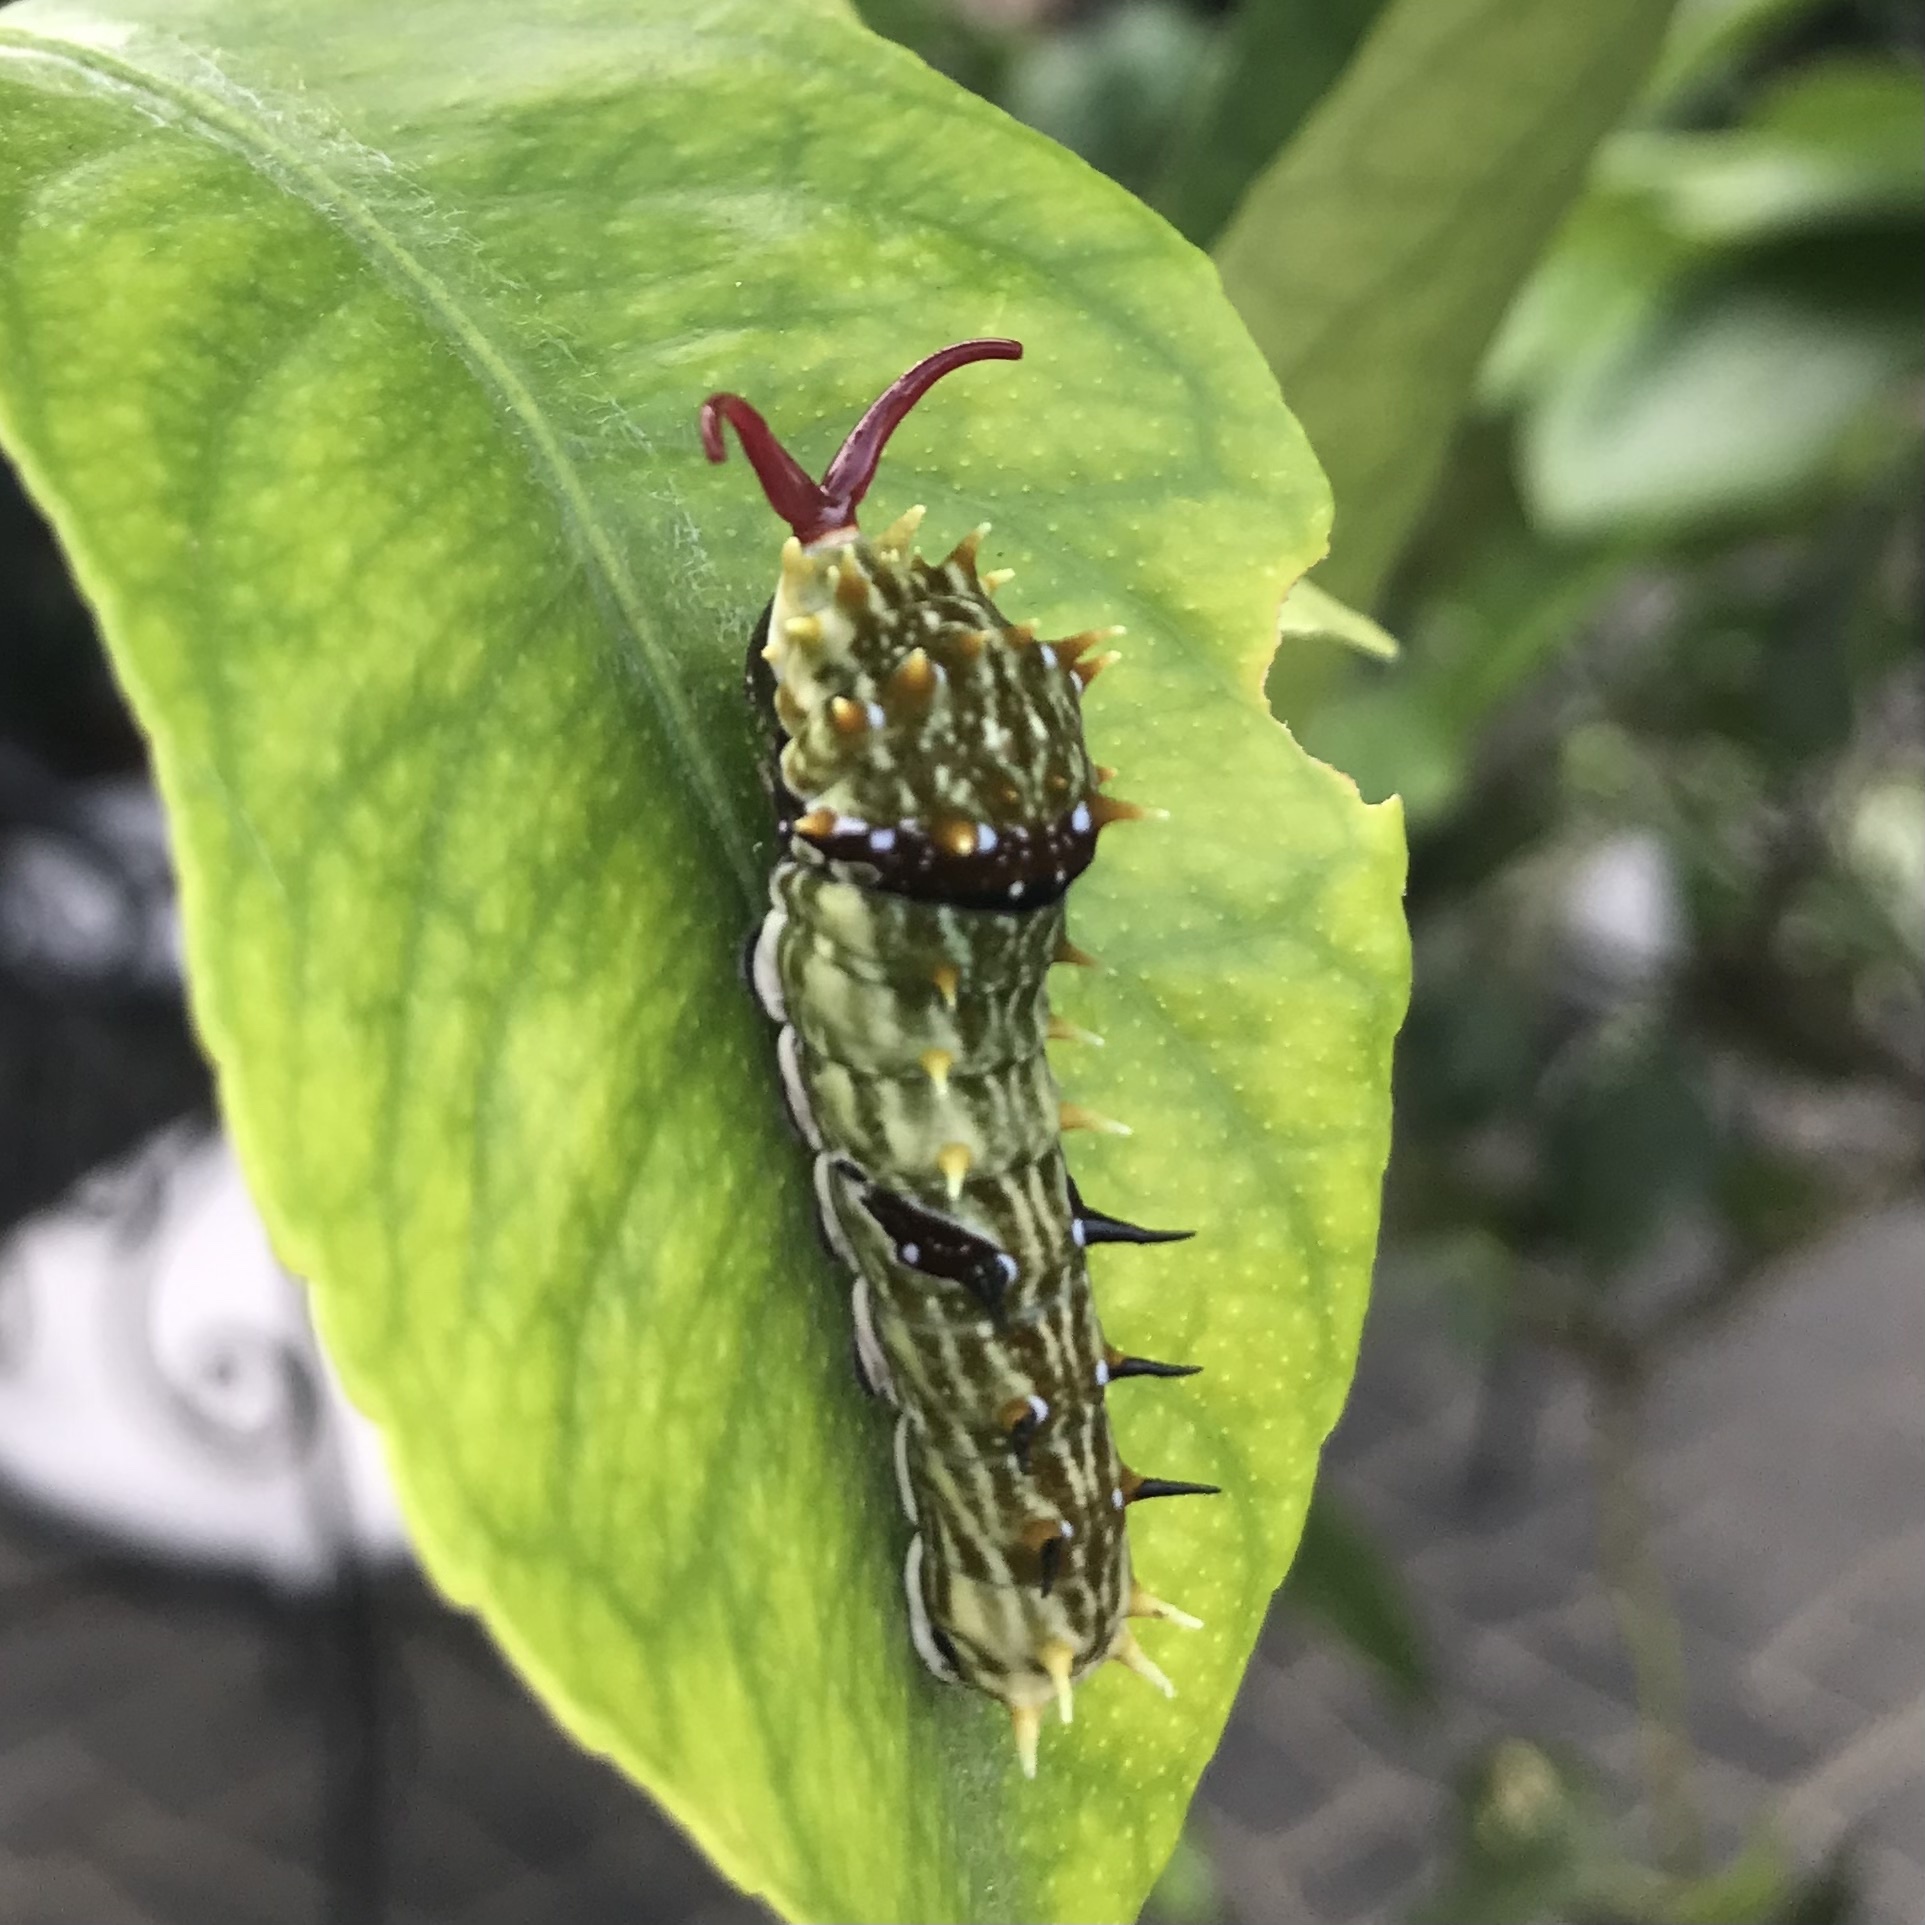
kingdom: Animalia
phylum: Arthropoda
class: Insecta
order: Lepidoptera
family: Papilionidae
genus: Papilio
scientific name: Papilio aegeus
